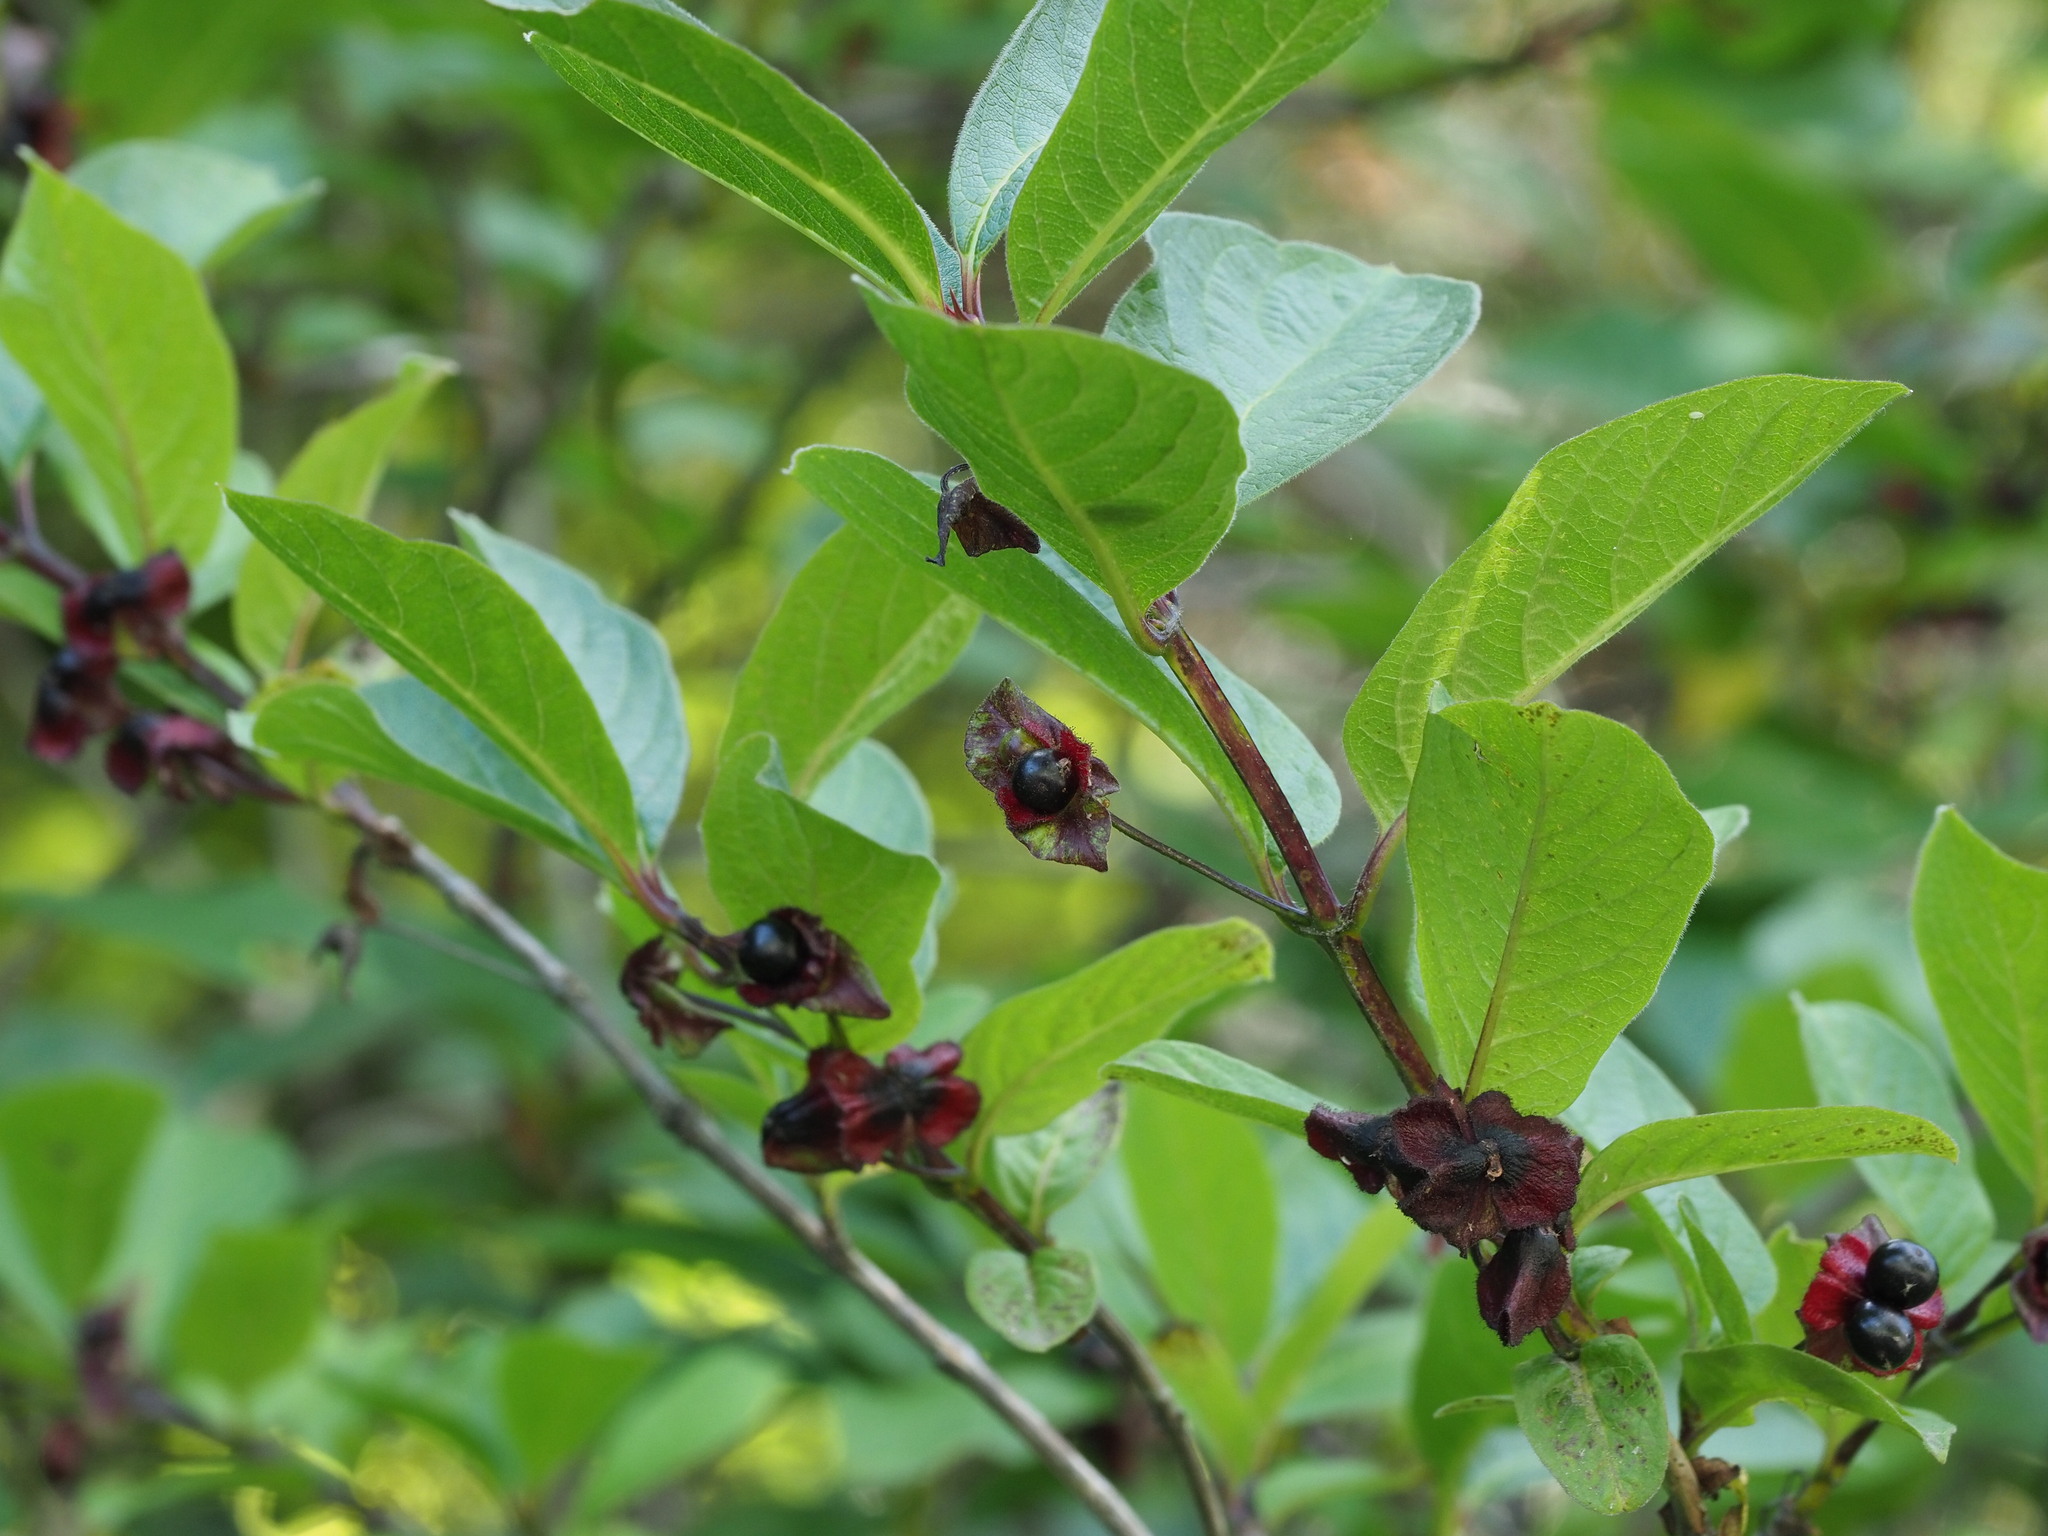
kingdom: Plantae
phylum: Tracheophyta
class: Magnoliopsida
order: Dipsacales
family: Caprifoliaceae
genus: Lonicera
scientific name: Lonicera involucrata
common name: Californian honeysuckle
